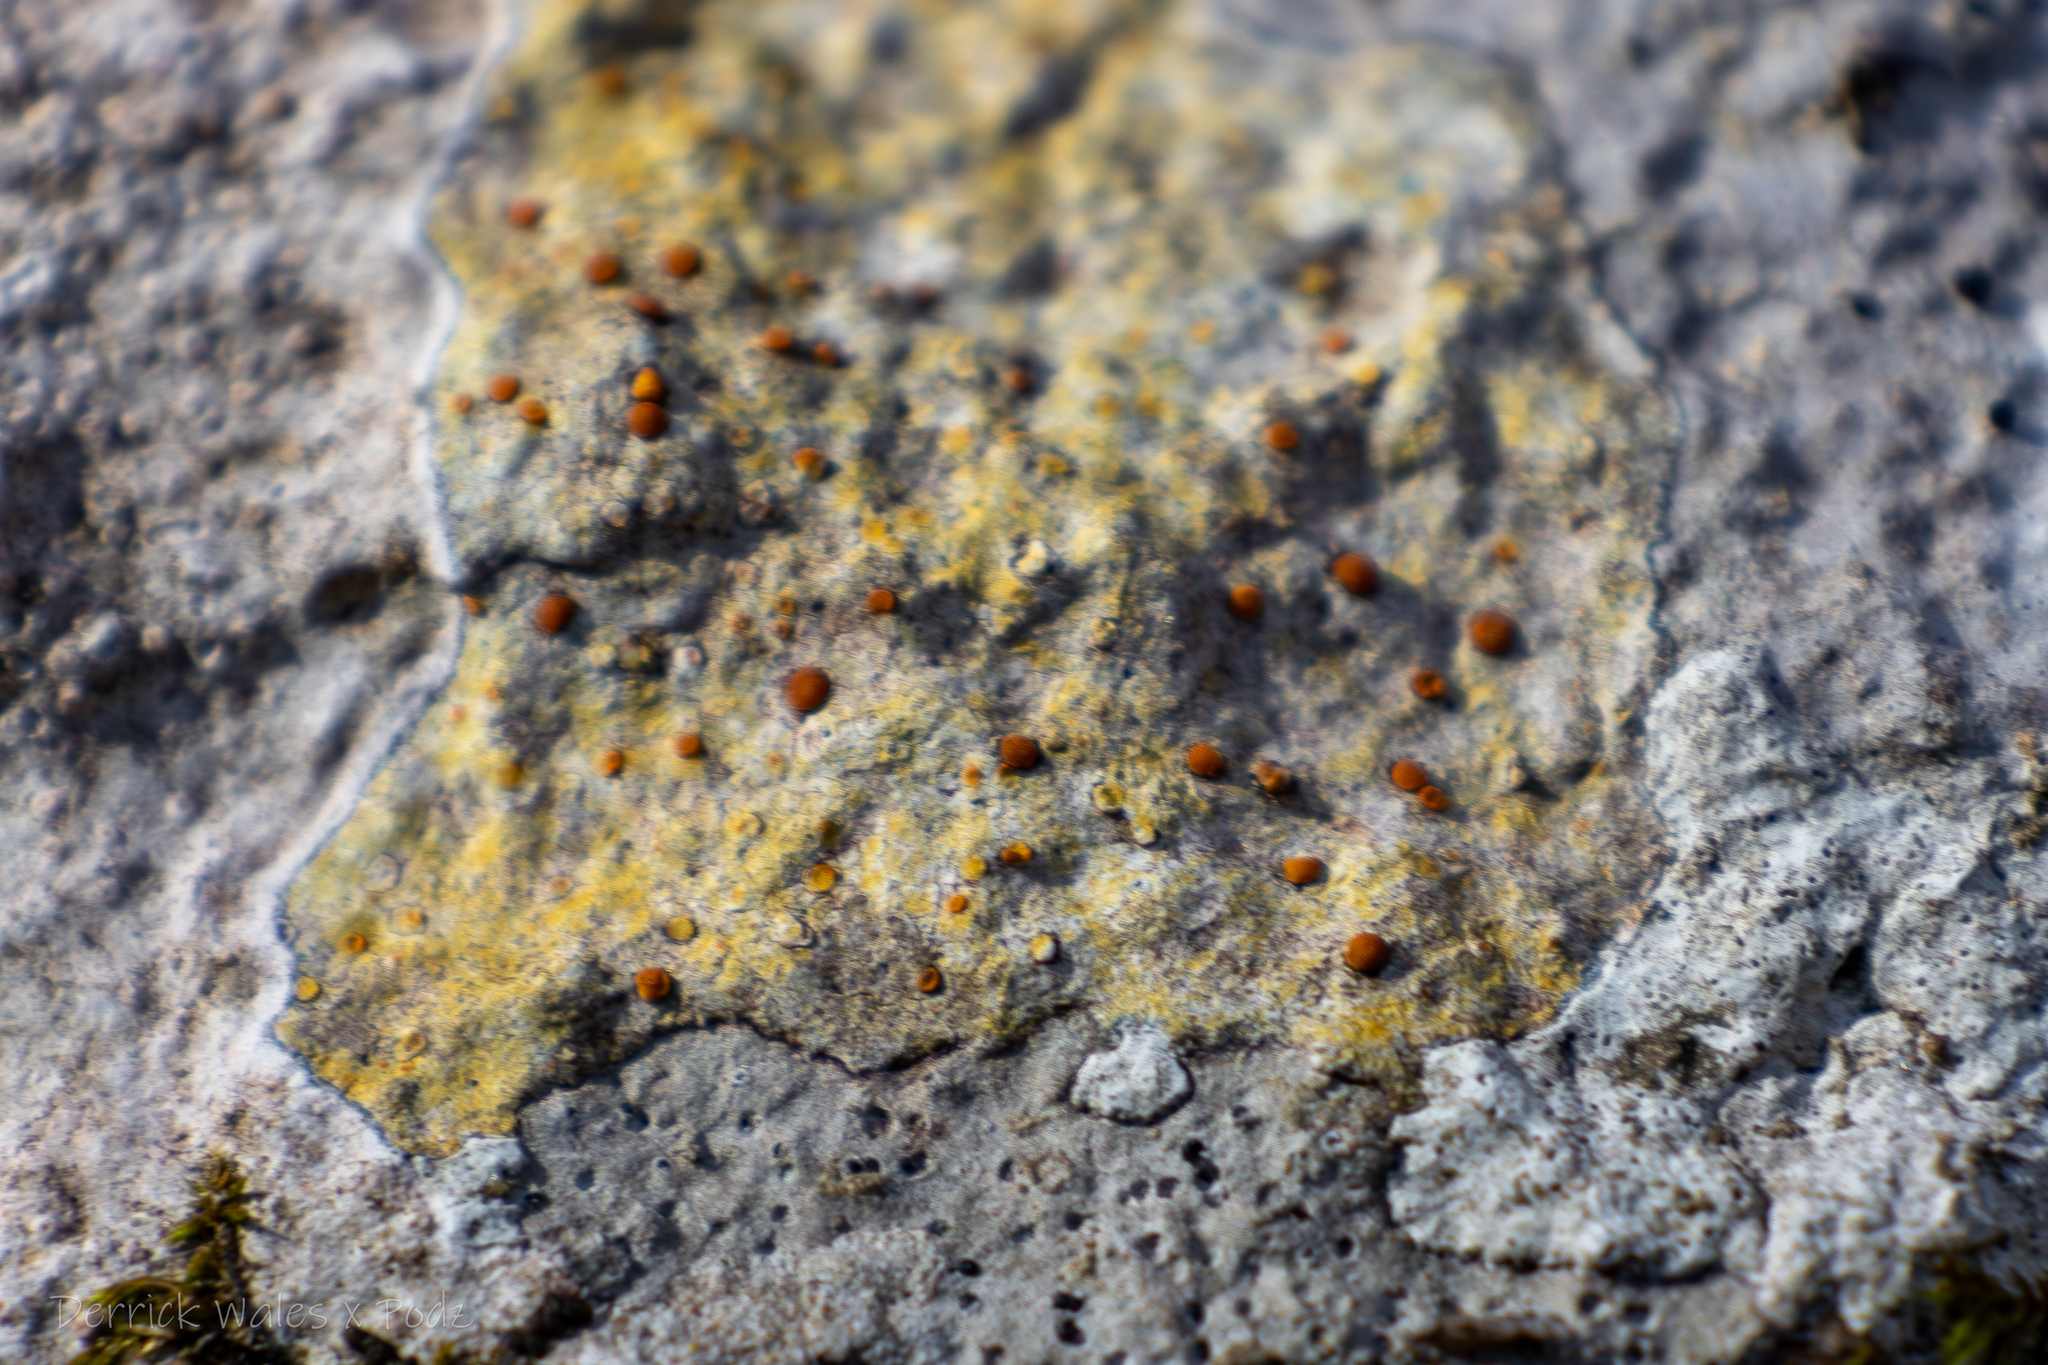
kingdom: Fungi
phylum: Ascomycota
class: Lecanoromycetes
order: Teloschistales
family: Teloschistaceae
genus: Gyalolechia
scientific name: Gyalolechia flavovirescens
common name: Sulphur firedot
